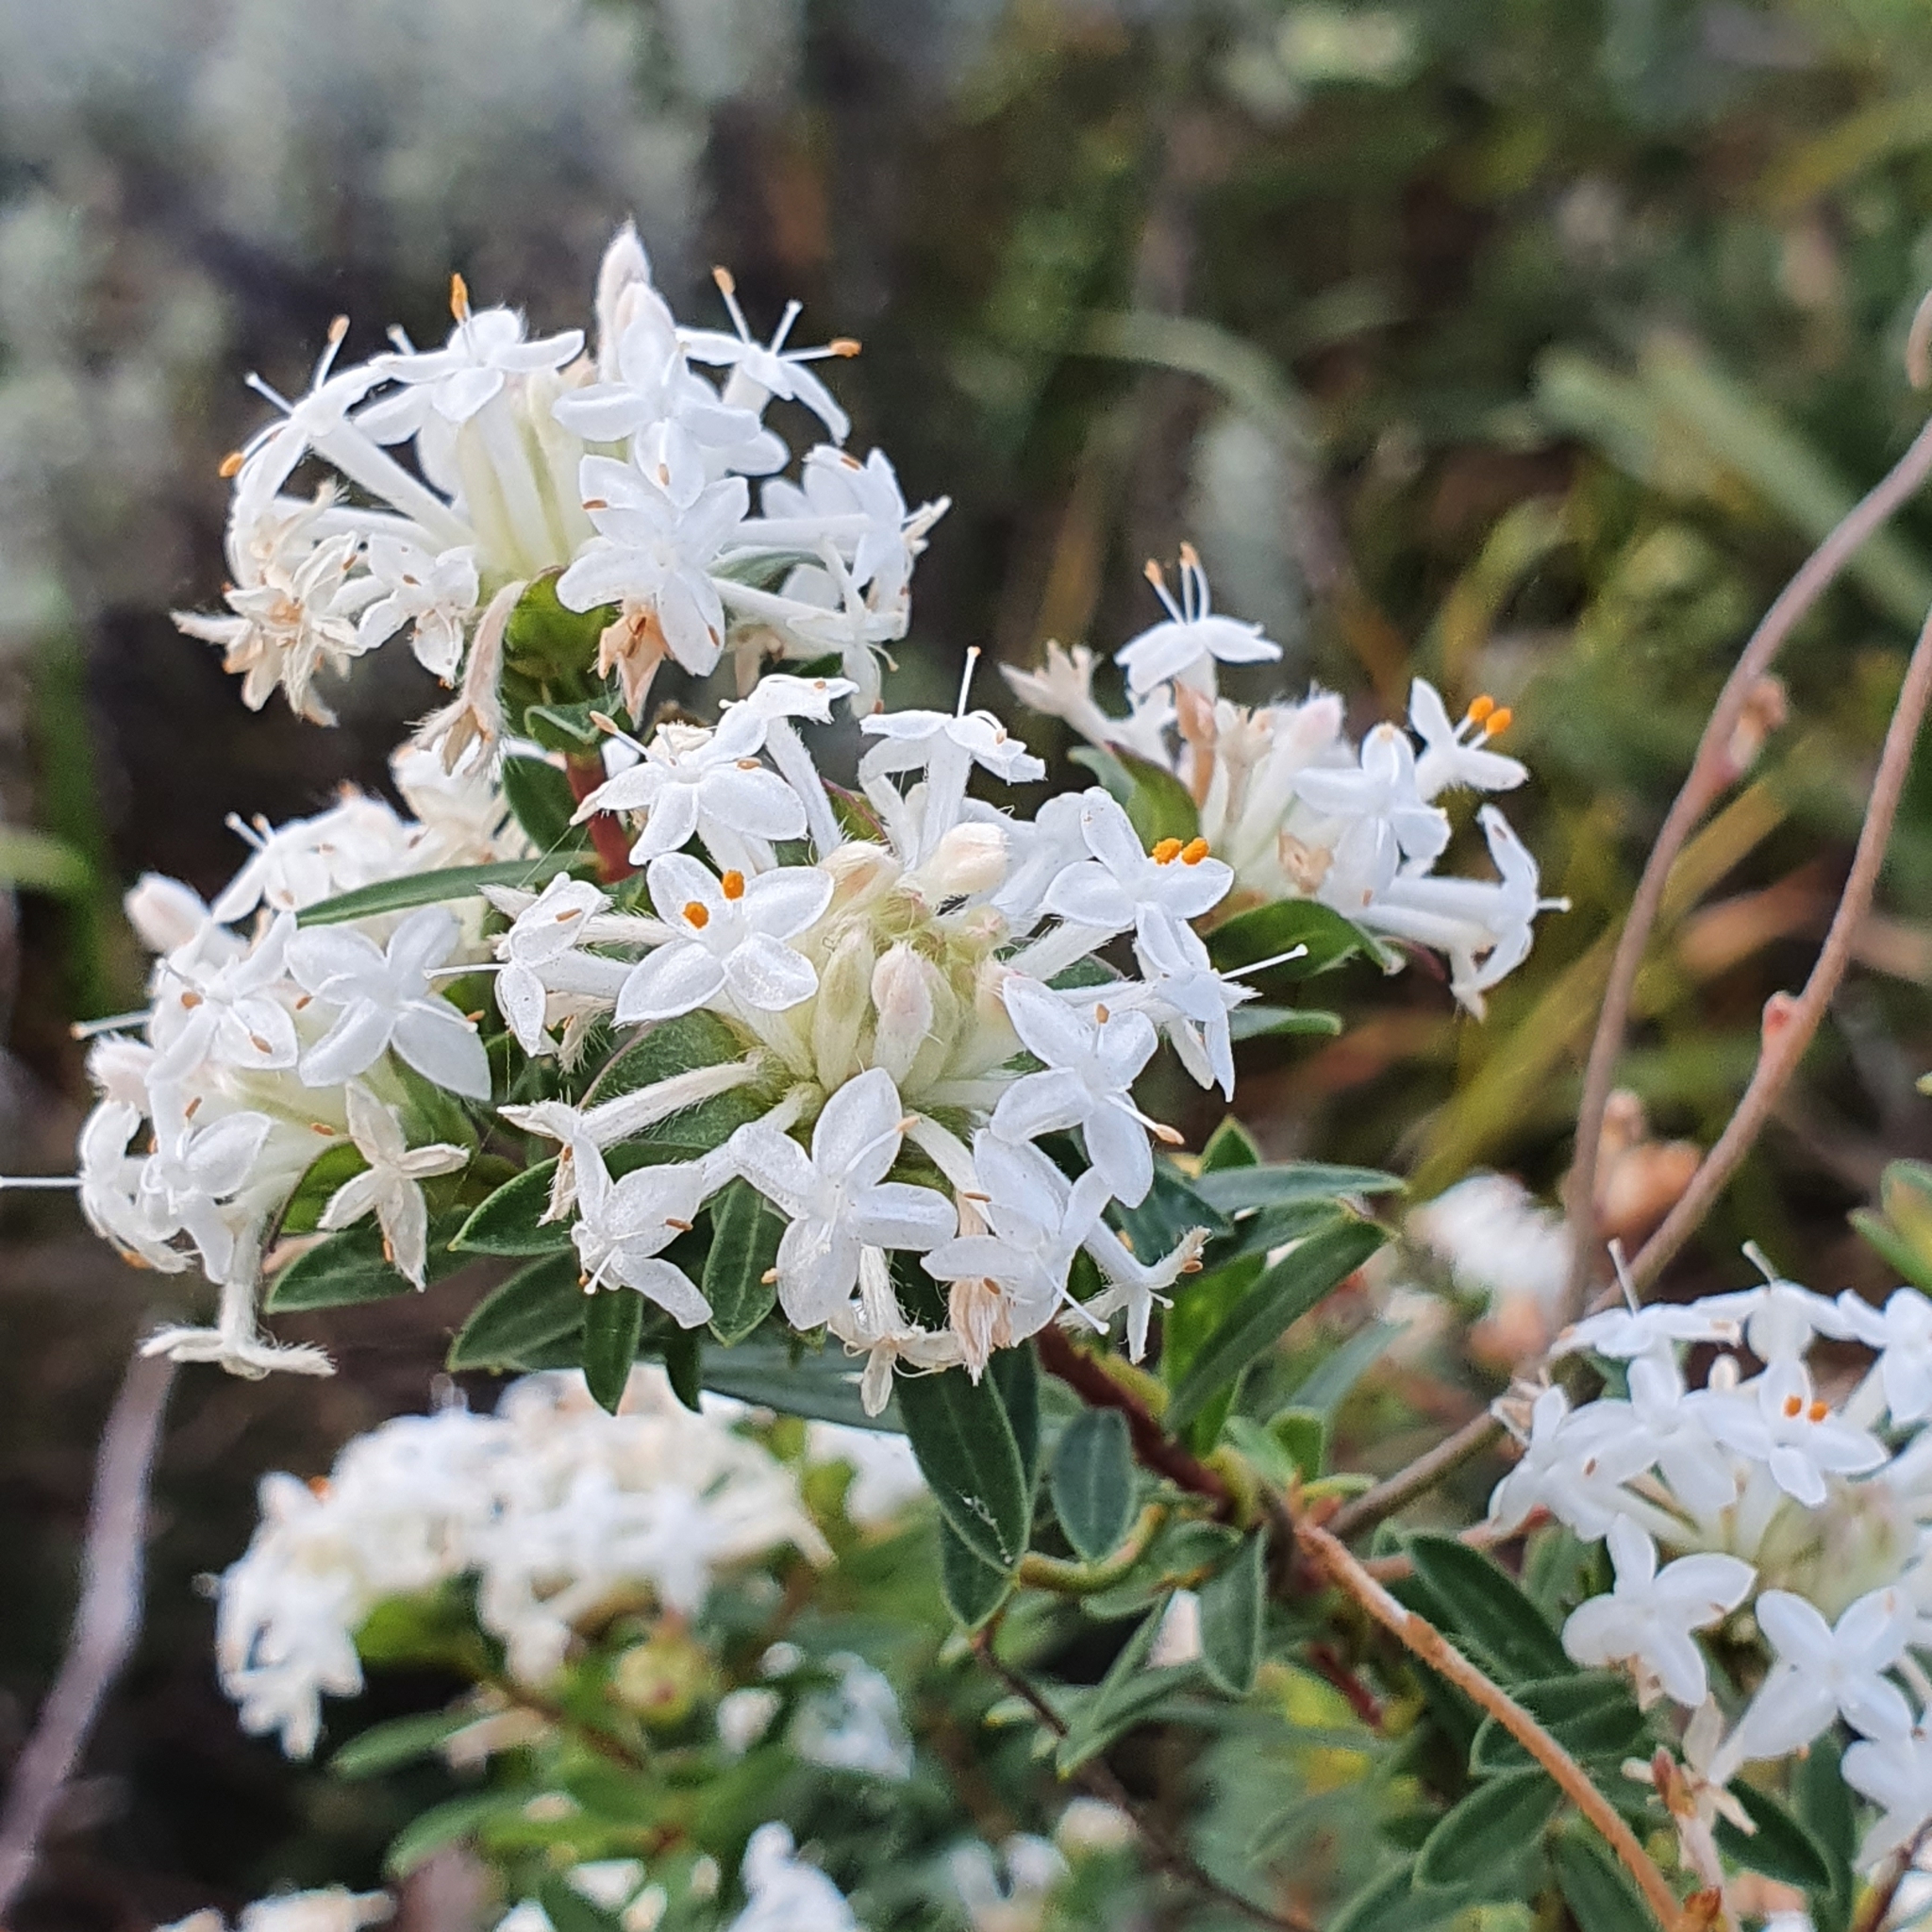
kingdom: Plantae
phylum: Tracheophyta
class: Magnoliopsida
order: Malvales
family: Thymelaeaceae
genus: Pimelea
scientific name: Pimelea linifolia
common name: Queen-of-the-bush
